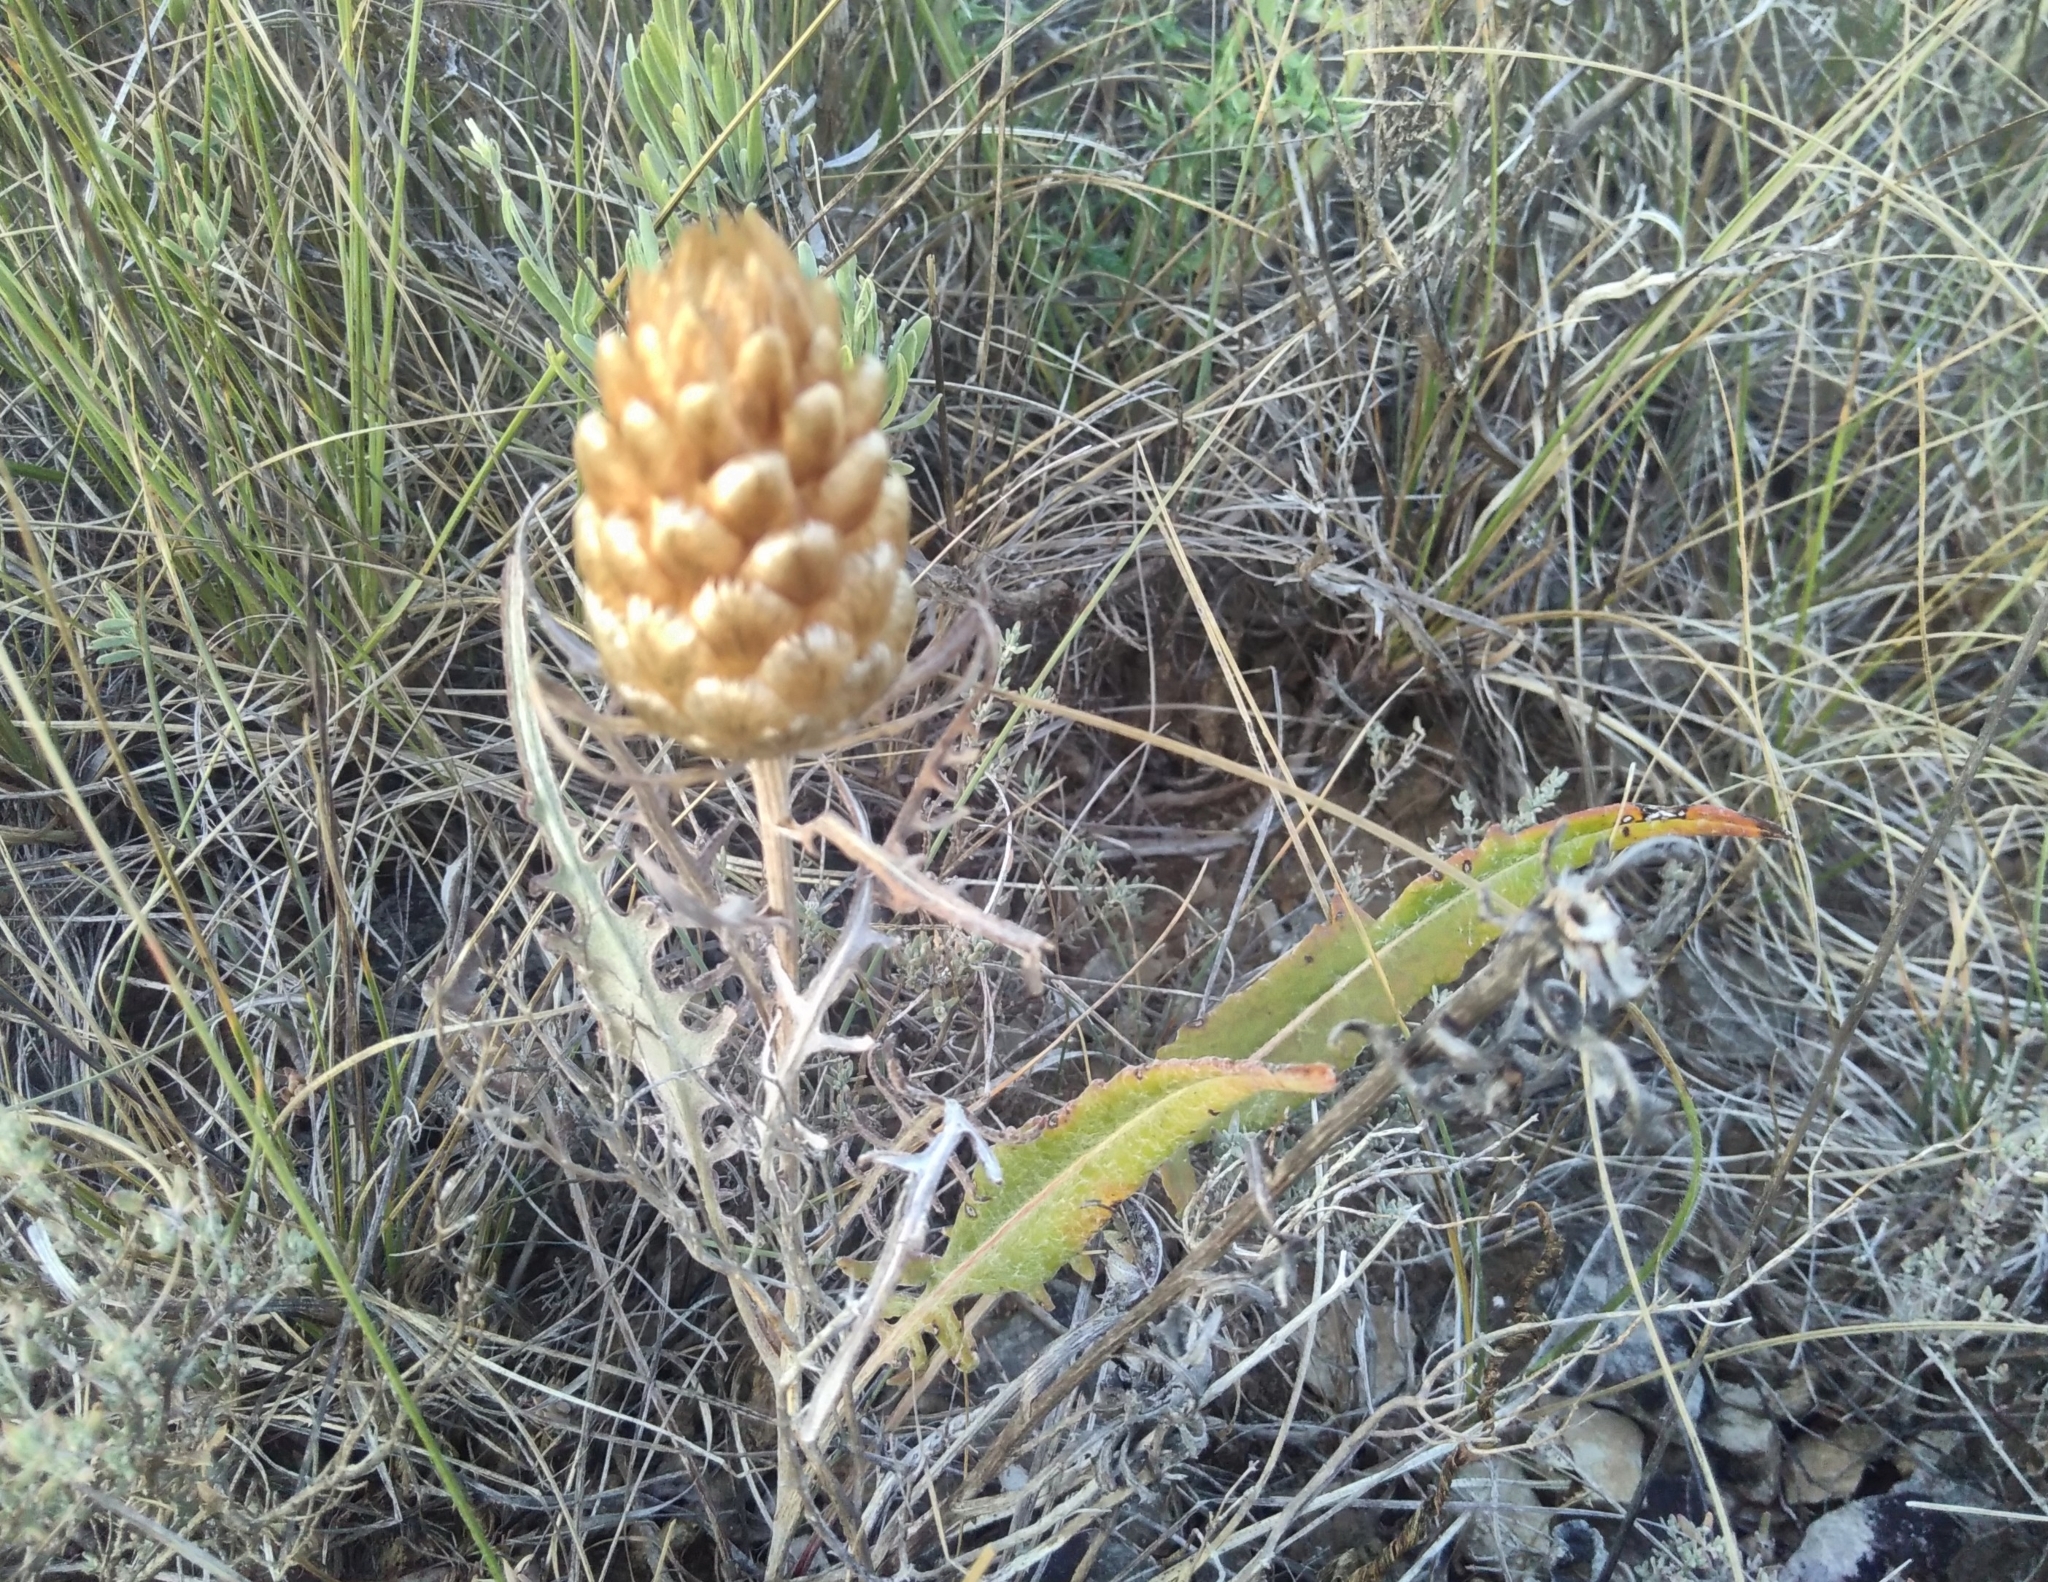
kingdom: Plantae
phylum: Tracheophyta
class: Magnoliopsida
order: Asterales
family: Asteraceae
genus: Leuzea
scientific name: Leuzea conifera
